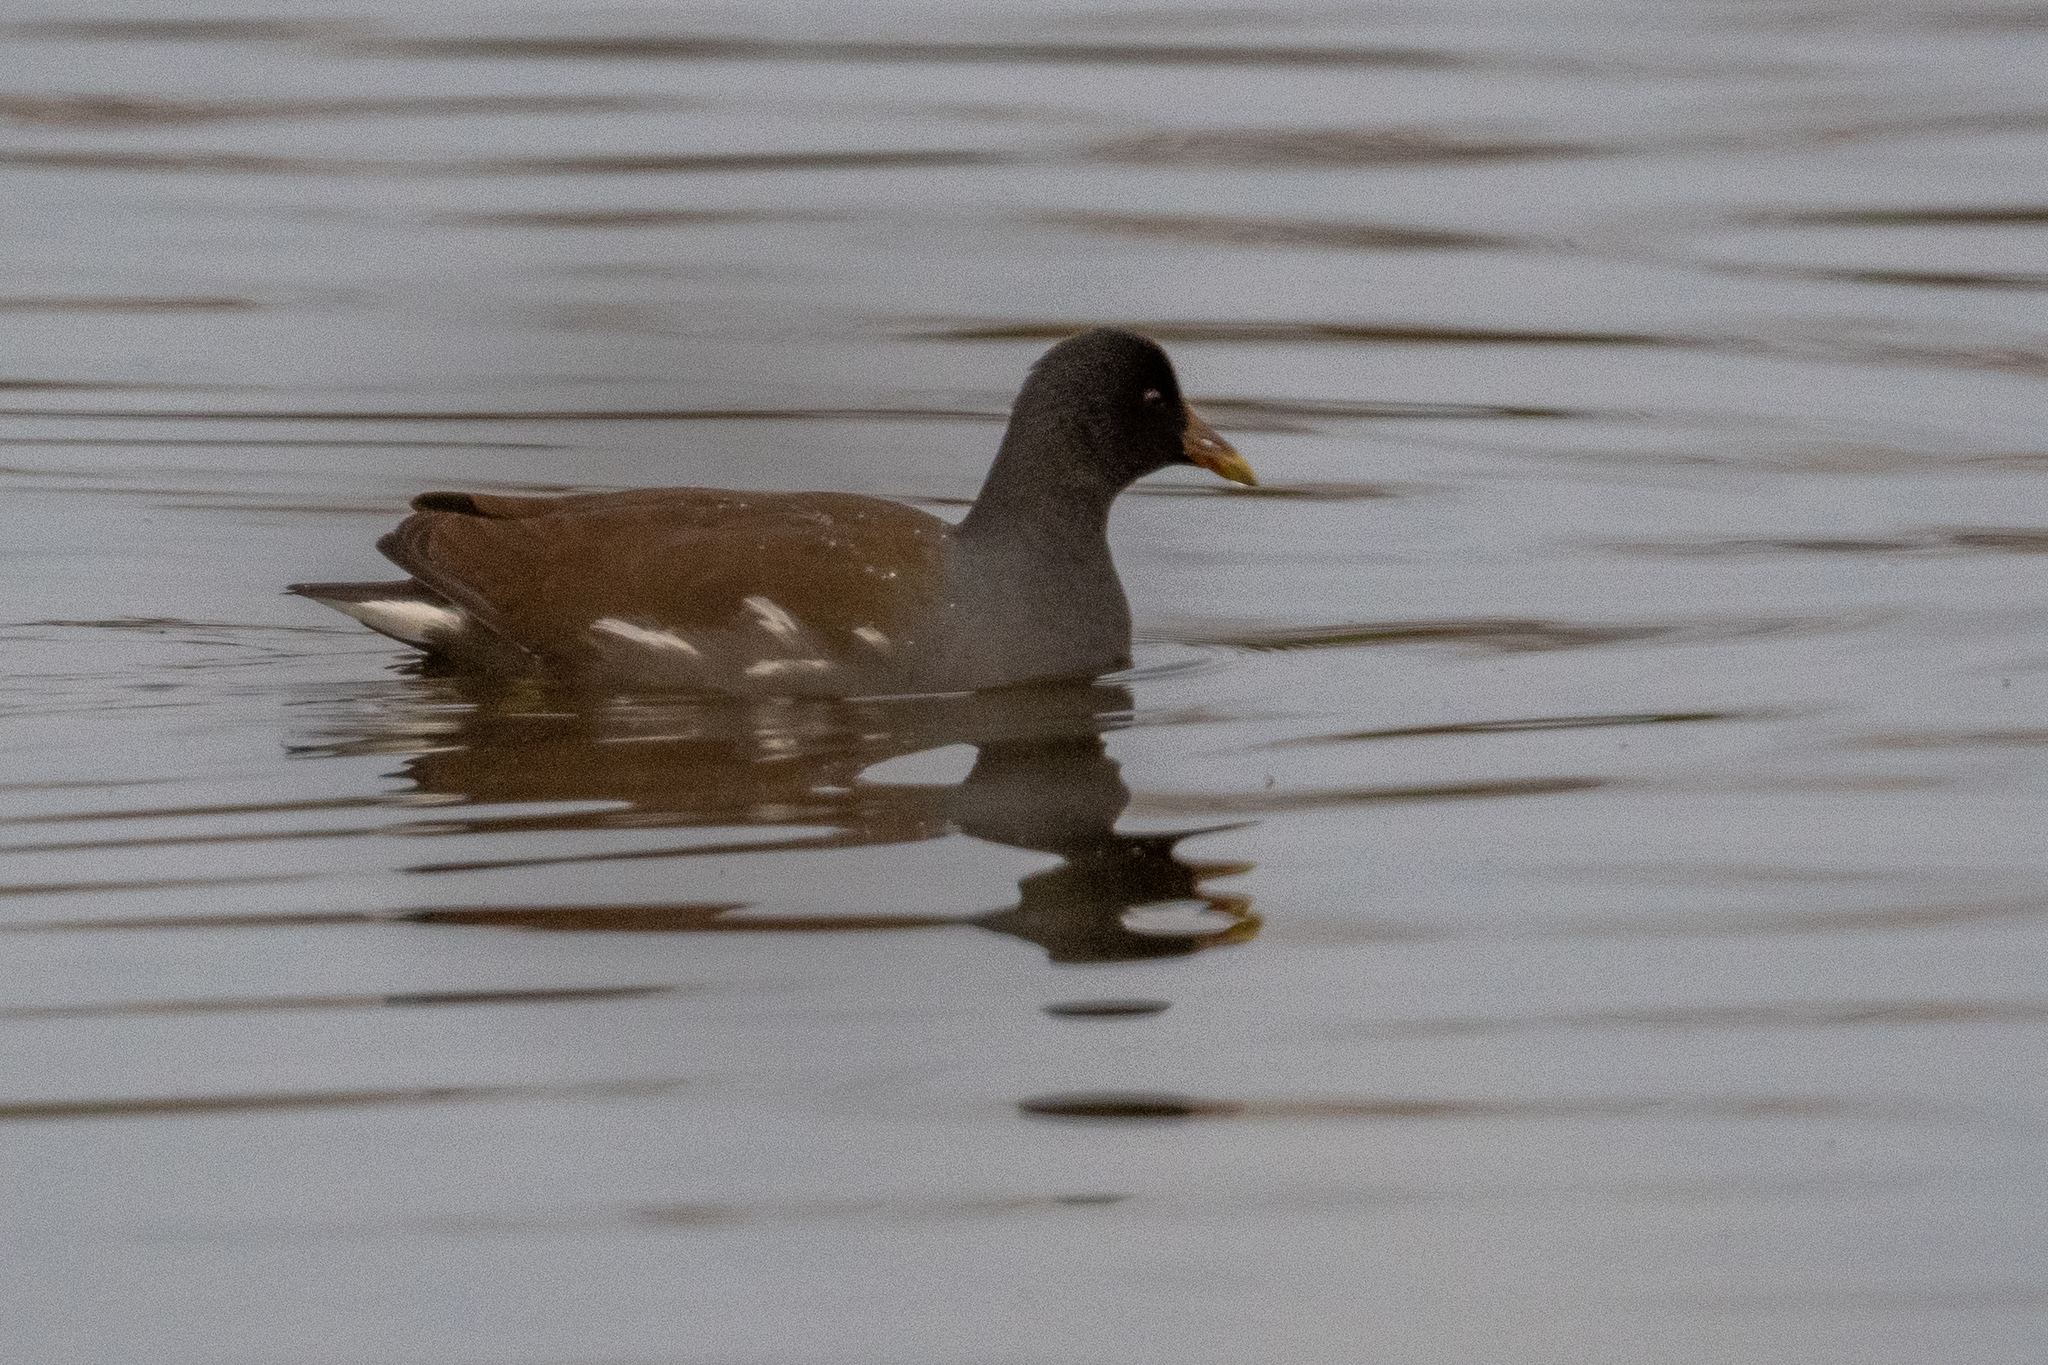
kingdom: Animalia
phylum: Chordata
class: Aves
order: Gruiformes
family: Rallidae
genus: Gallinula
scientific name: Gallinula chloropus
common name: Common moorhen
